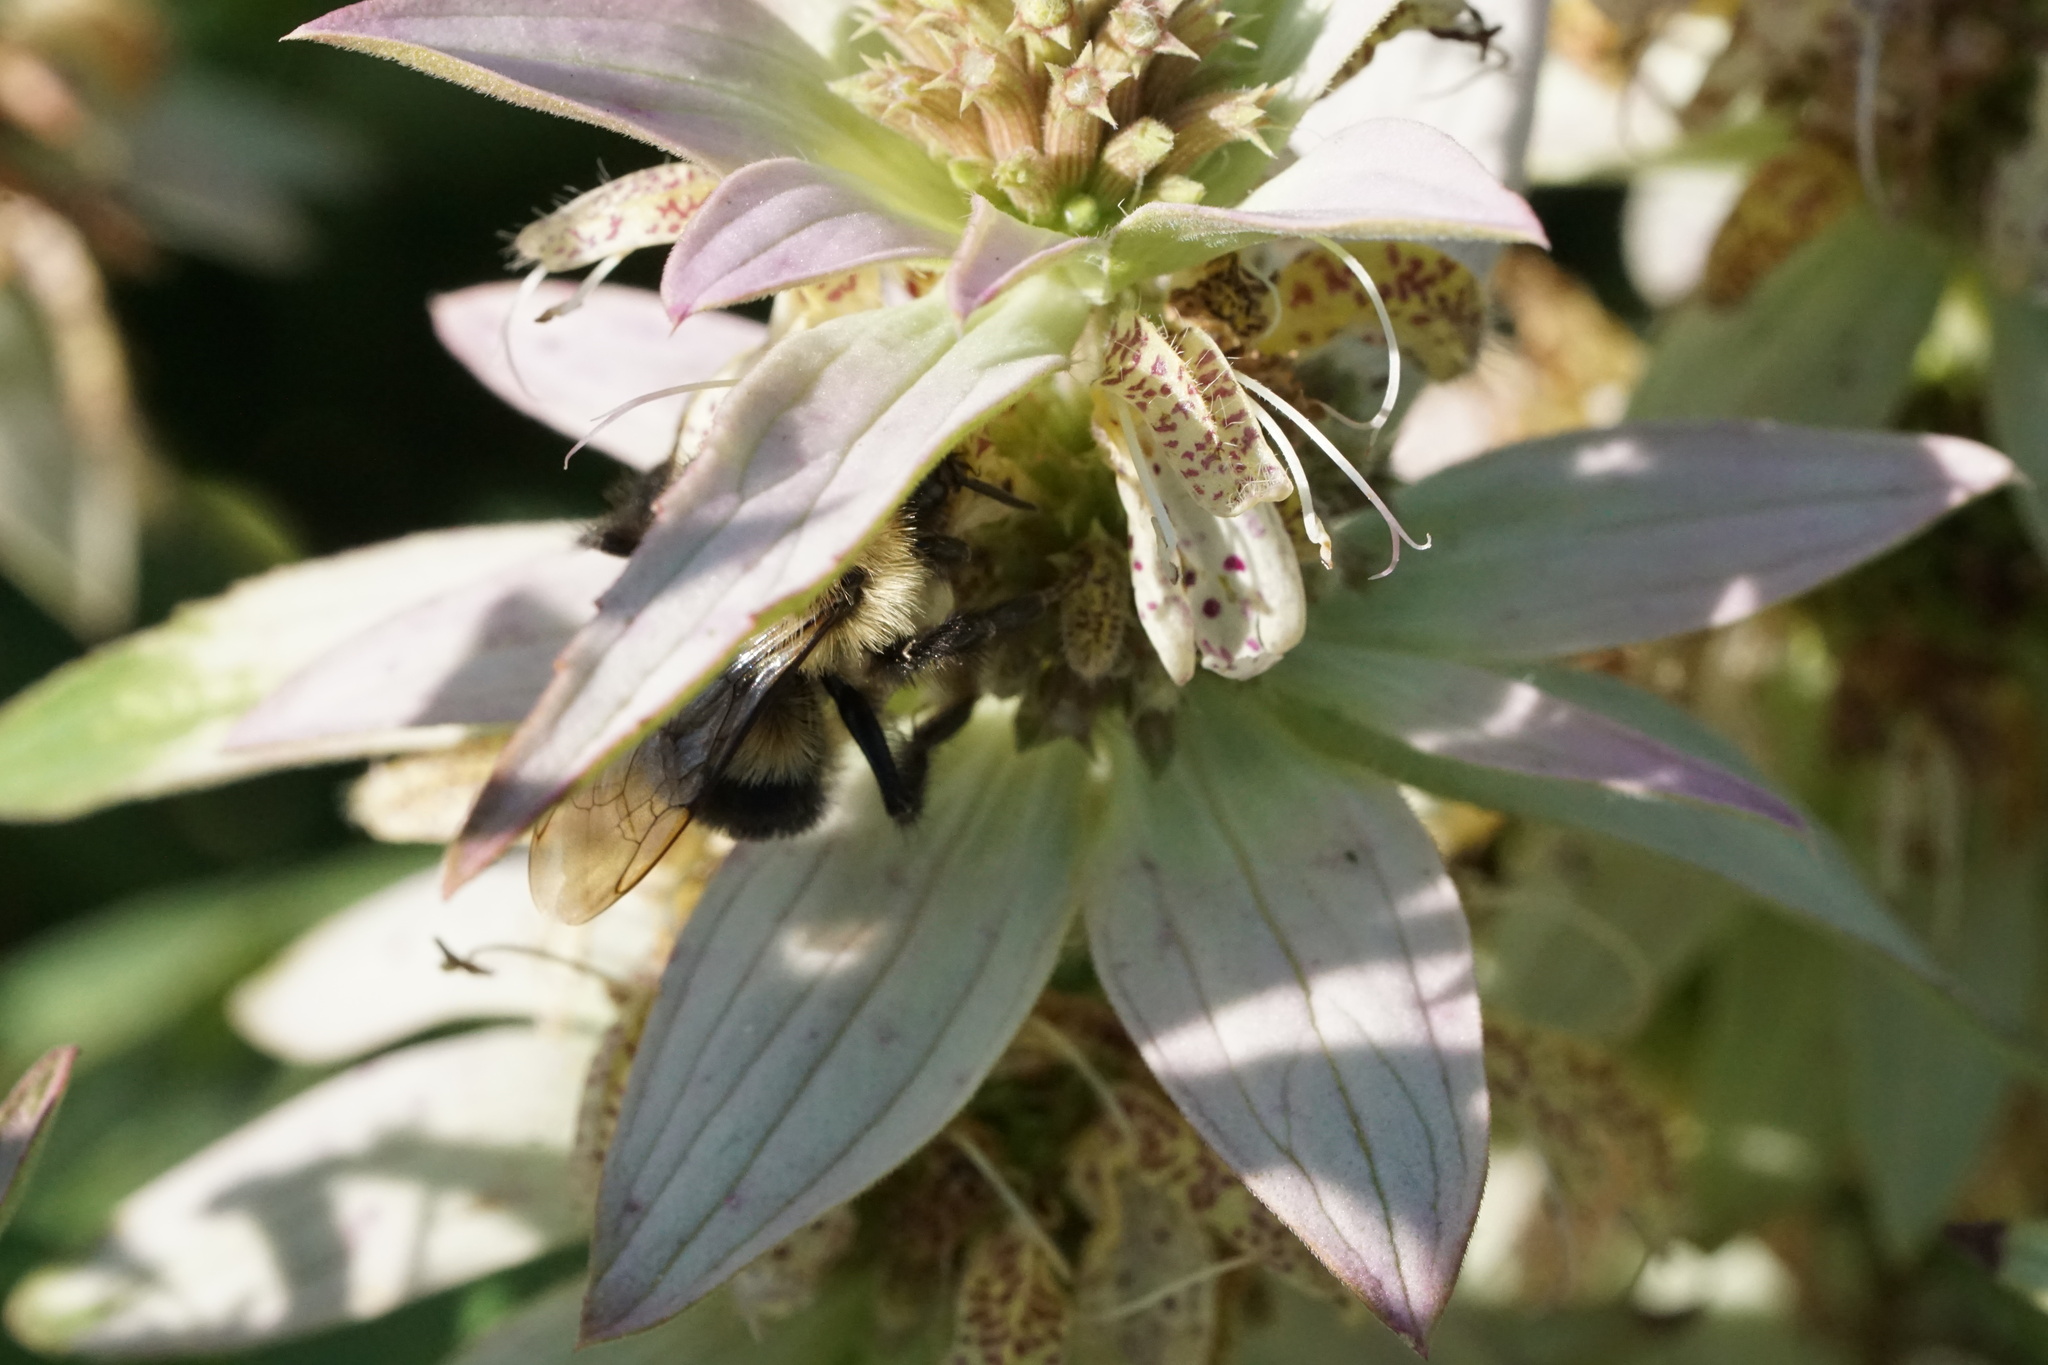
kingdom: Animalia
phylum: Arthropoda
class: Insecta
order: Hymenoptera
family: Apidae
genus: Bombus
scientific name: Bombus impatiens
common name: Common eastern bumble bee
